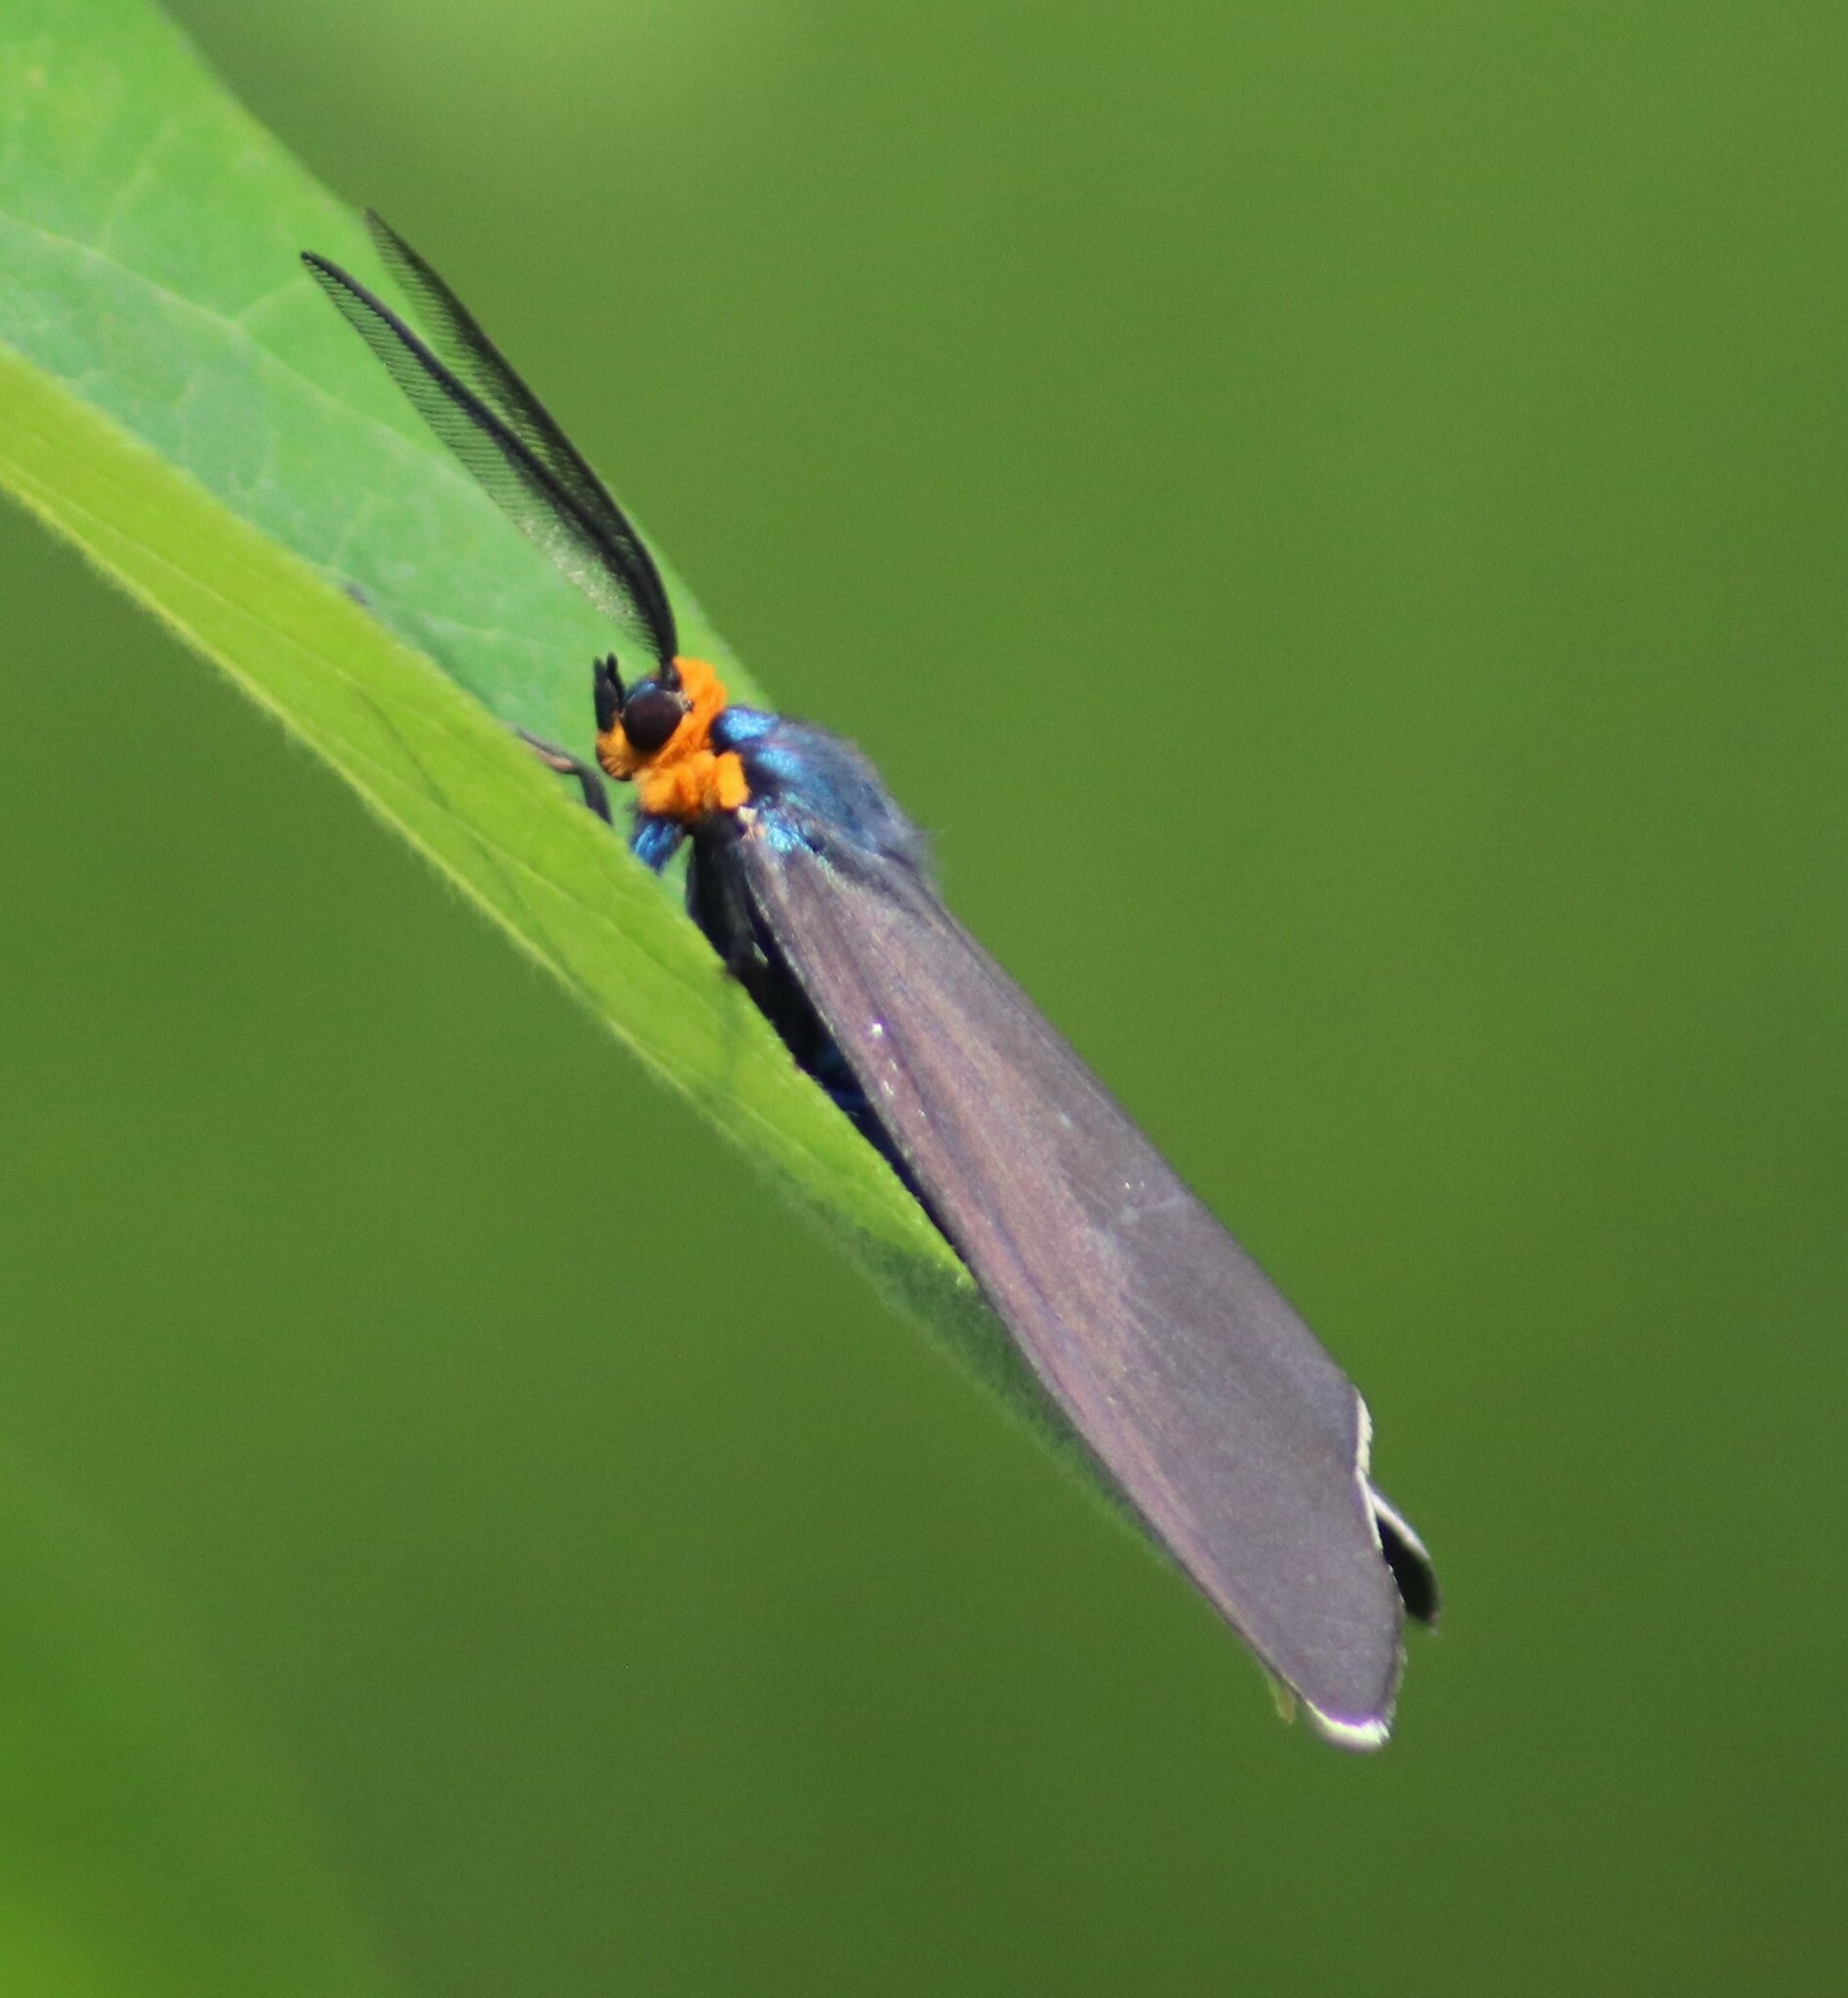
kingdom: Animalia
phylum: Arthropoda
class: Insecta
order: Lepidoptera
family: Erebidae
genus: Ctenucha
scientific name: Ctenucha virginica
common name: Virginia ctenucha moth
